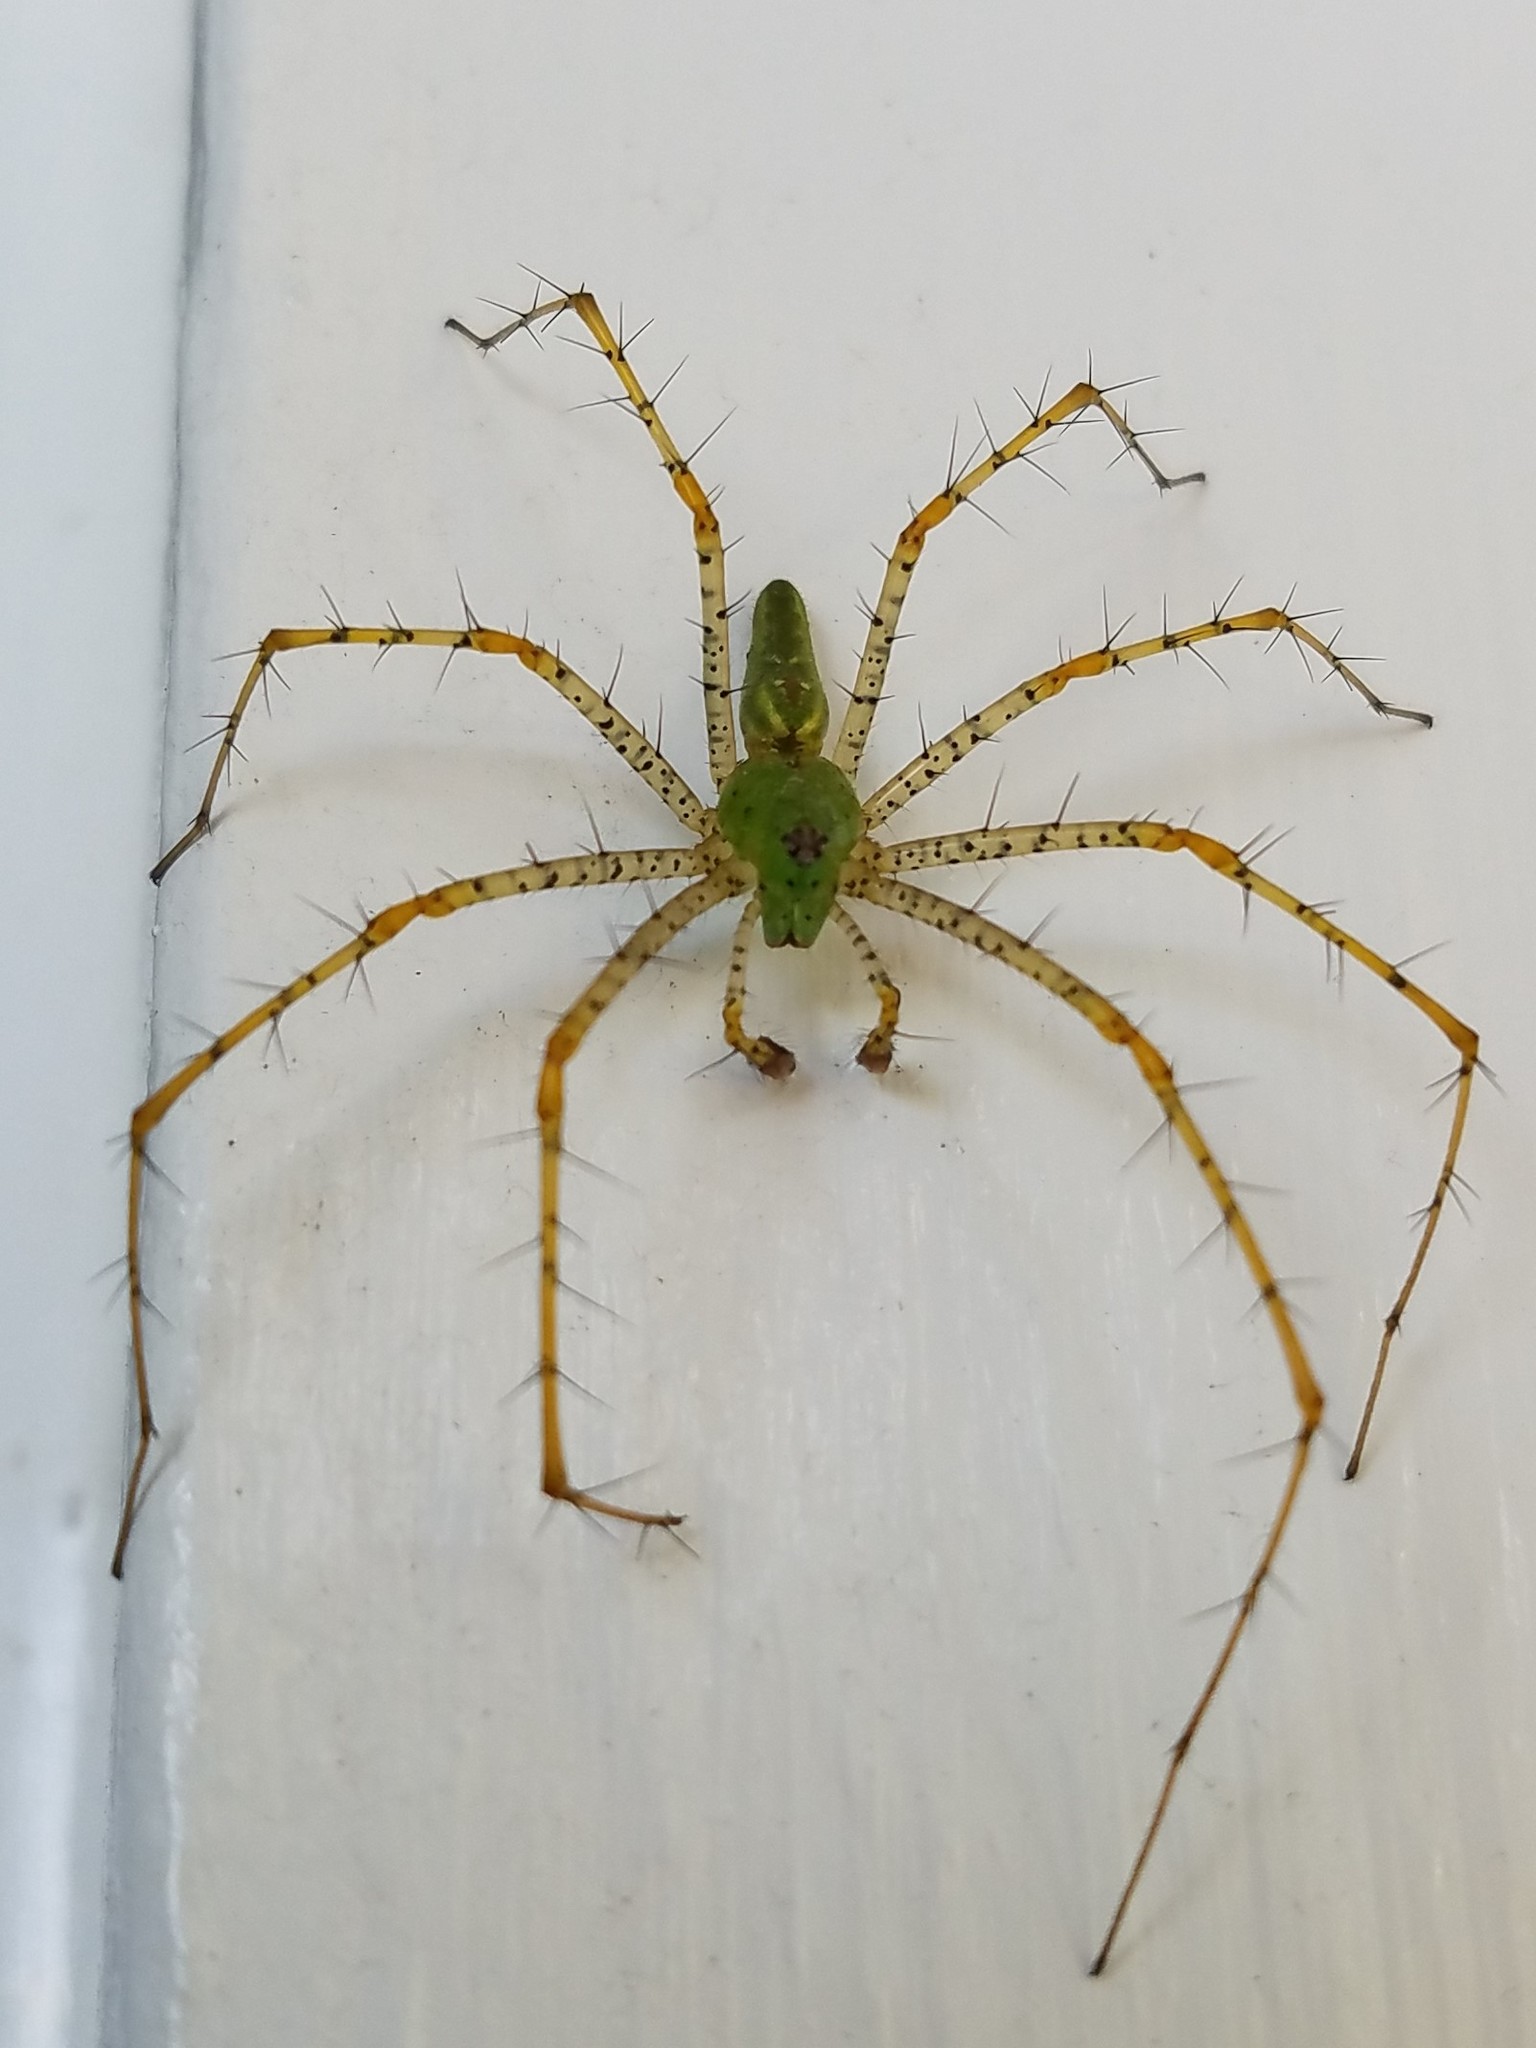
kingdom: Animalia
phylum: Arthropoda
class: Arachnida
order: Araneae
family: Oxyopidae
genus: Peucetia
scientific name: Peucetia viridans
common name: Lynx spiders
